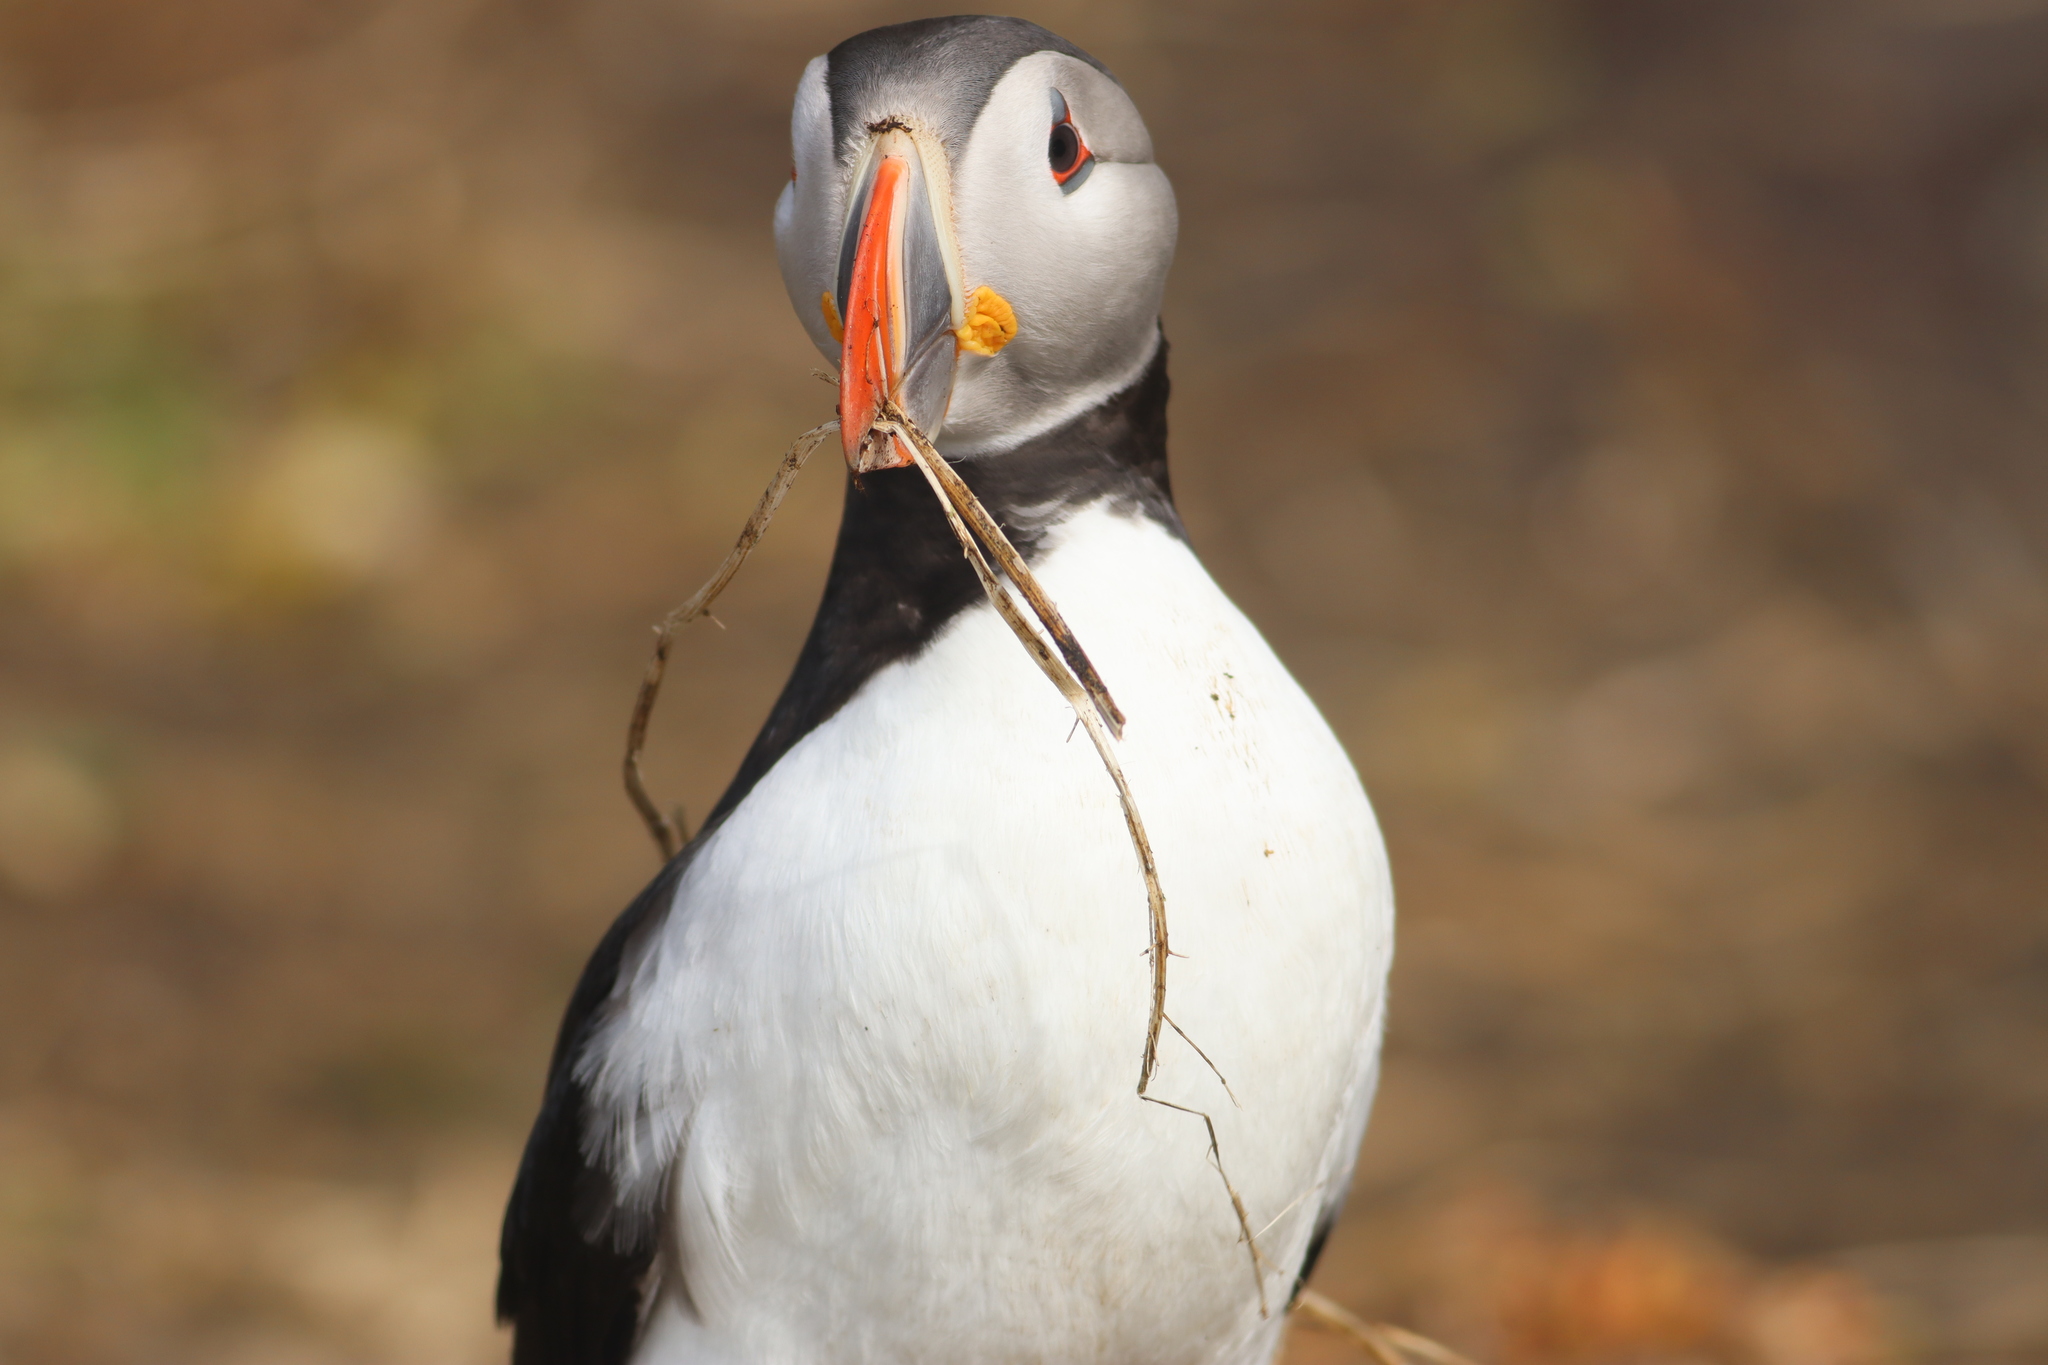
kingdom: Animalia
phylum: Chordata
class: Aves
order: Charadriiformes
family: Alcidae
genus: Fratercula
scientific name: Fratercula arctica
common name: Atlantic puffin
